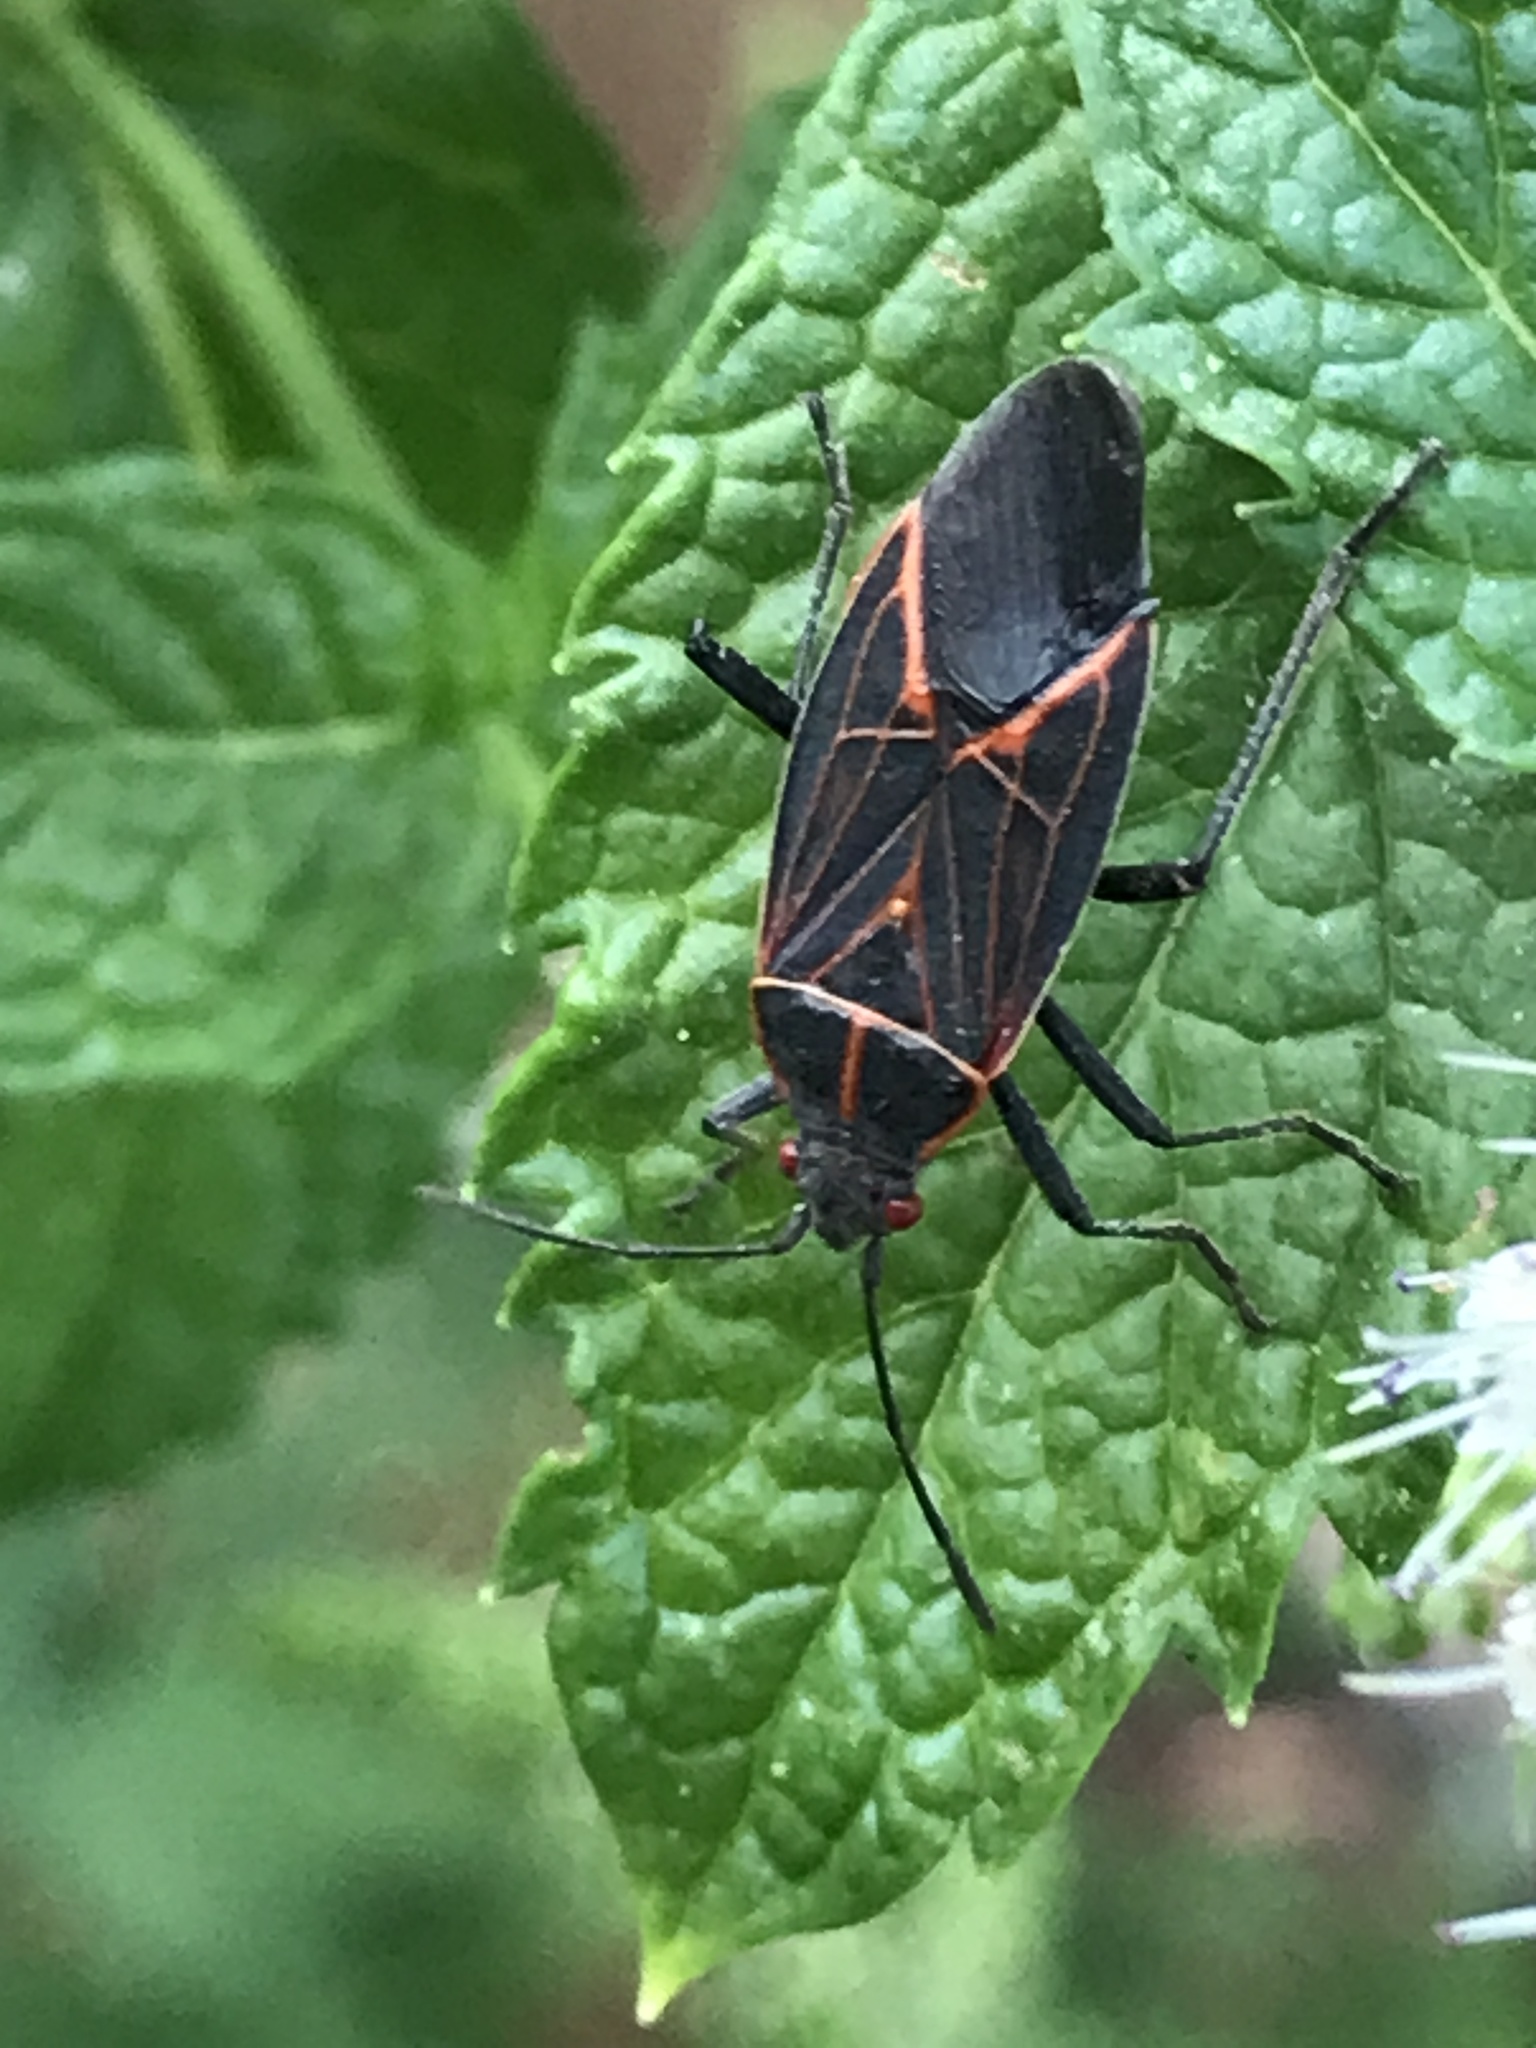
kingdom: Animalia
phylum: Arthropoda
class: Insecta
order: Hemiptera
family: Rhopalidae
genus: Boisea
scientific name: Boisea rubrolineata
